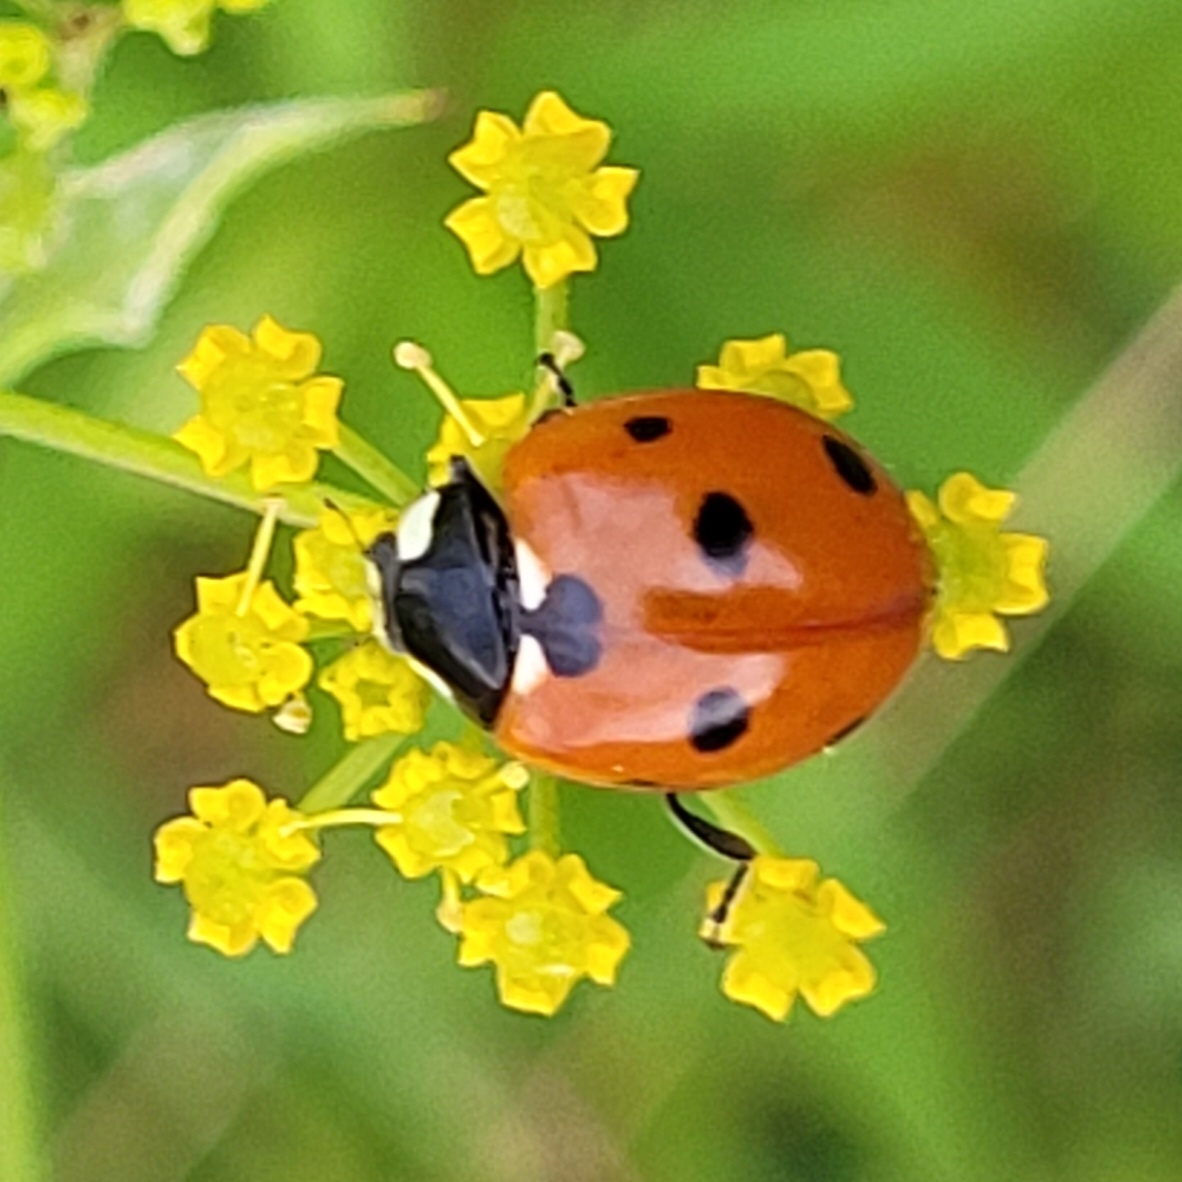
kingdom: Animalia
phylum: Arthropoda
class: Insecta
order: Coleoptera
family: Coccinellidae
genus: Coccinella
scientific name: Coccinella septempunctata
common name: Sevenspotted lady beetle
